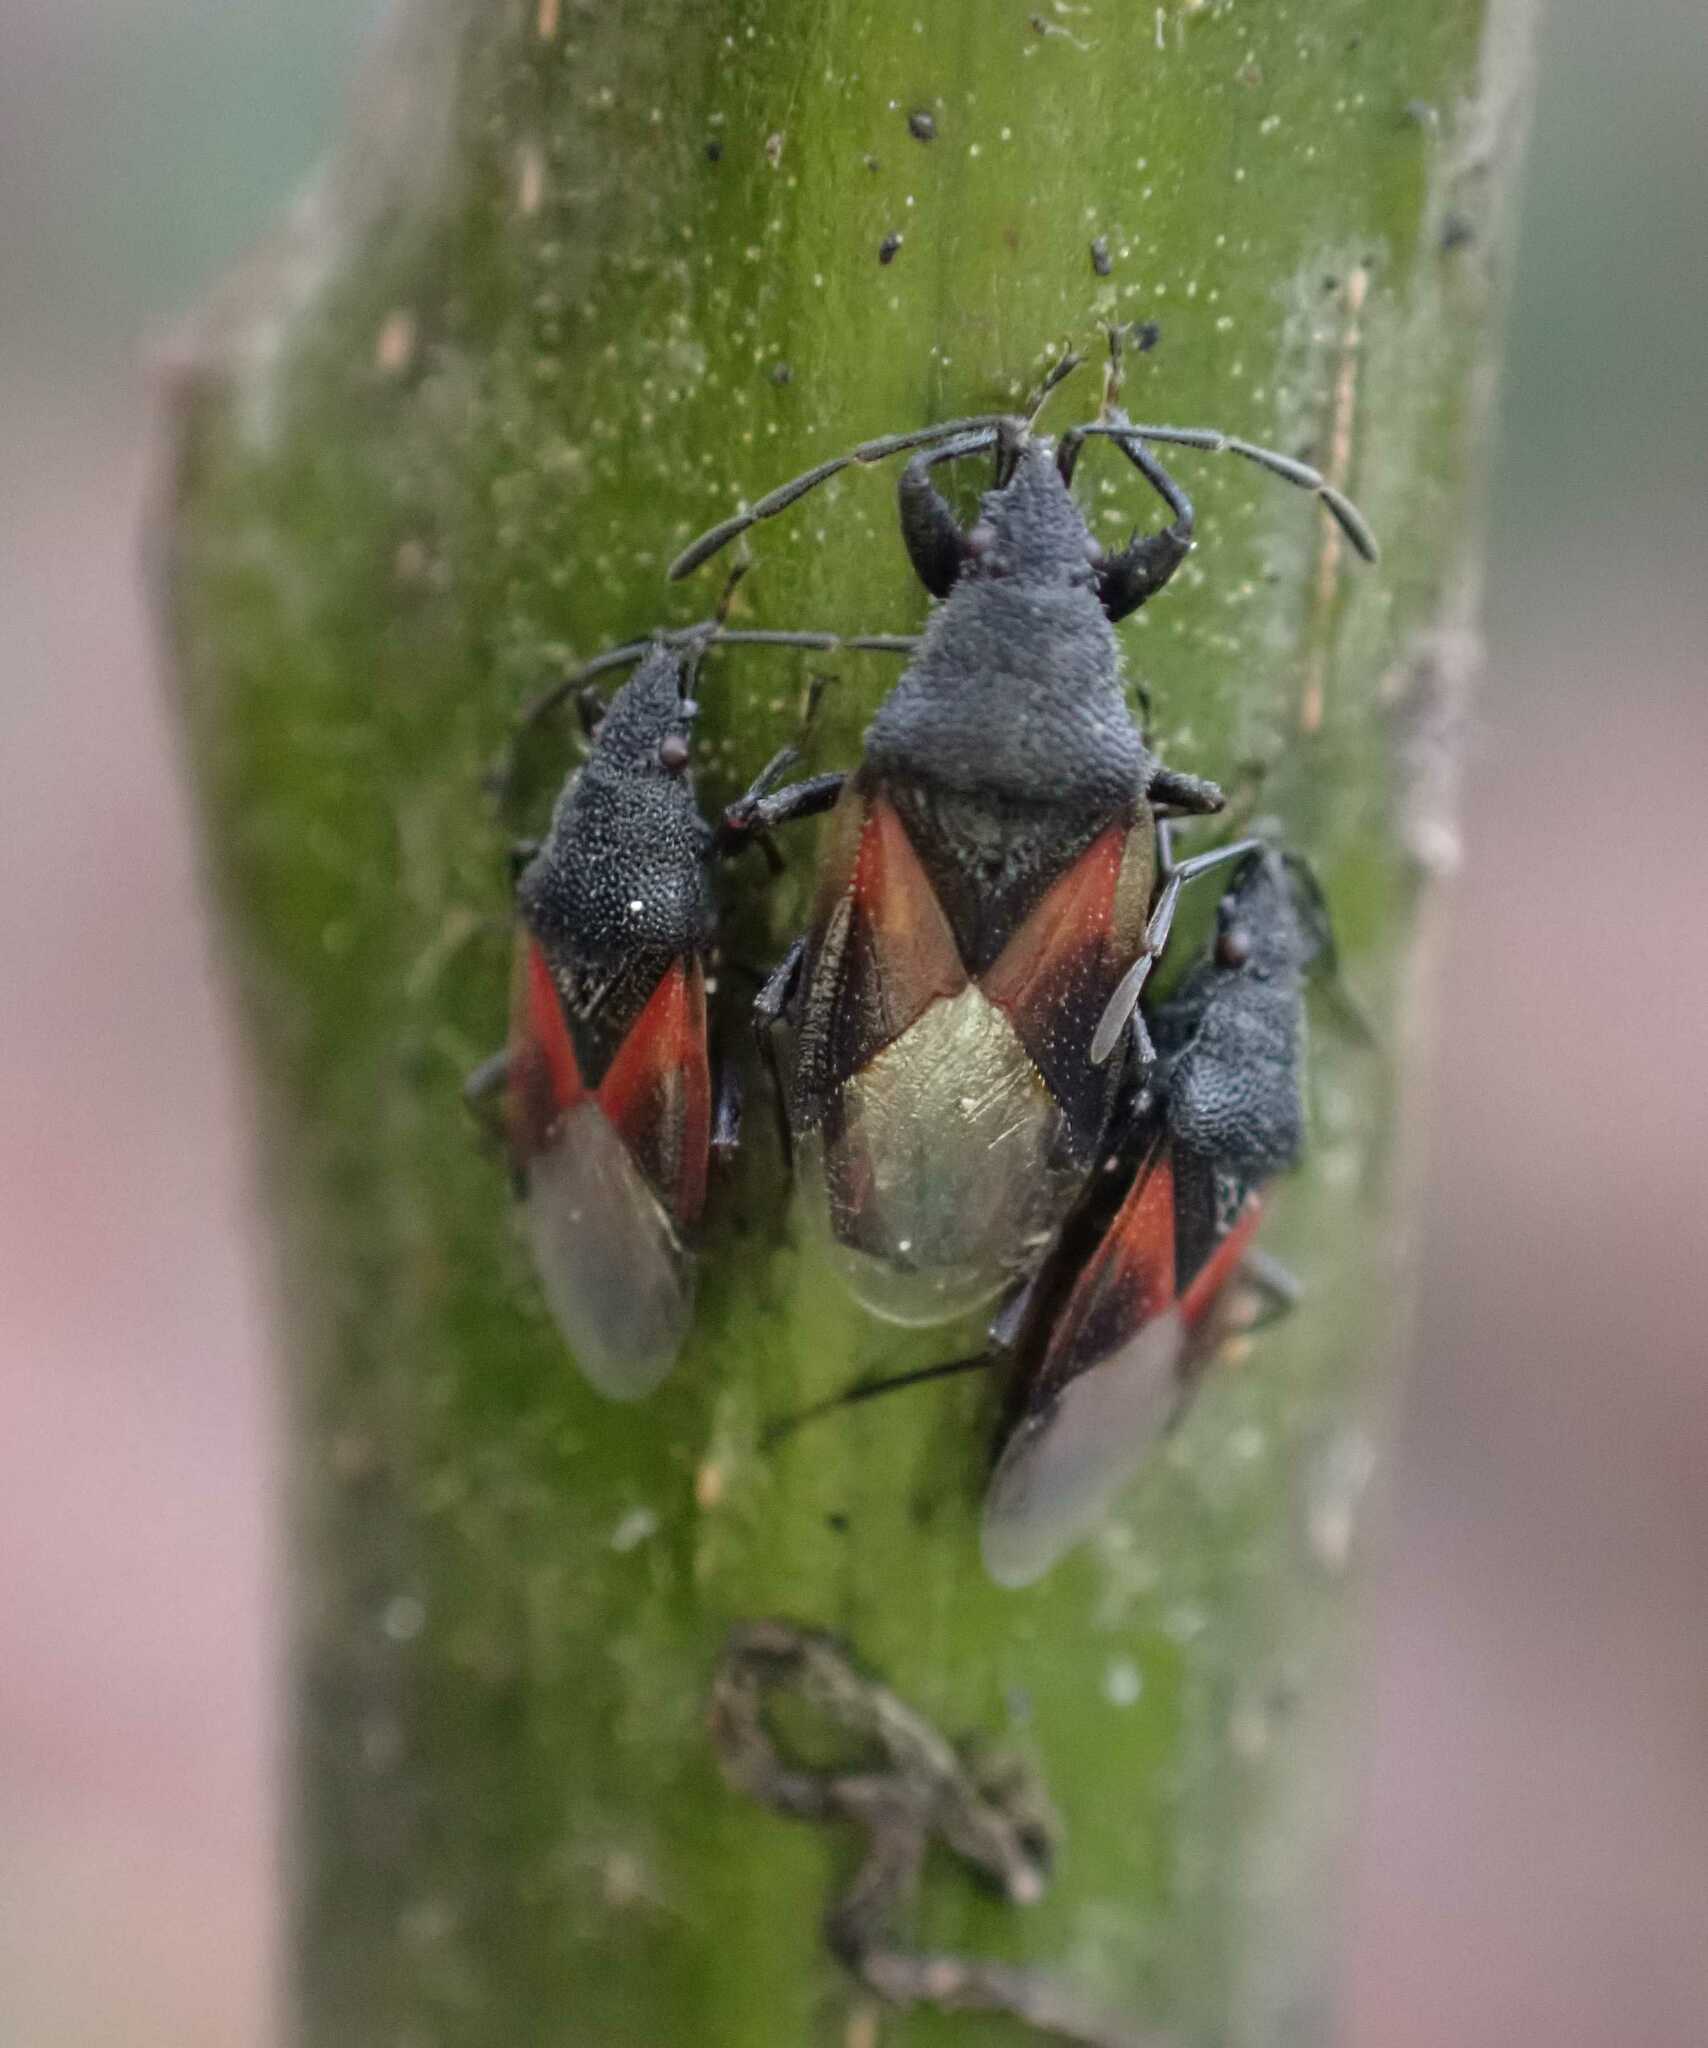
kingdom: Animalia
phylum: Arthropoda
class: Insecta
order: Hemiptera
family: Oxycarenidae
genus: Oxycarenus
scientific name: Oxycarenus lavaterae
